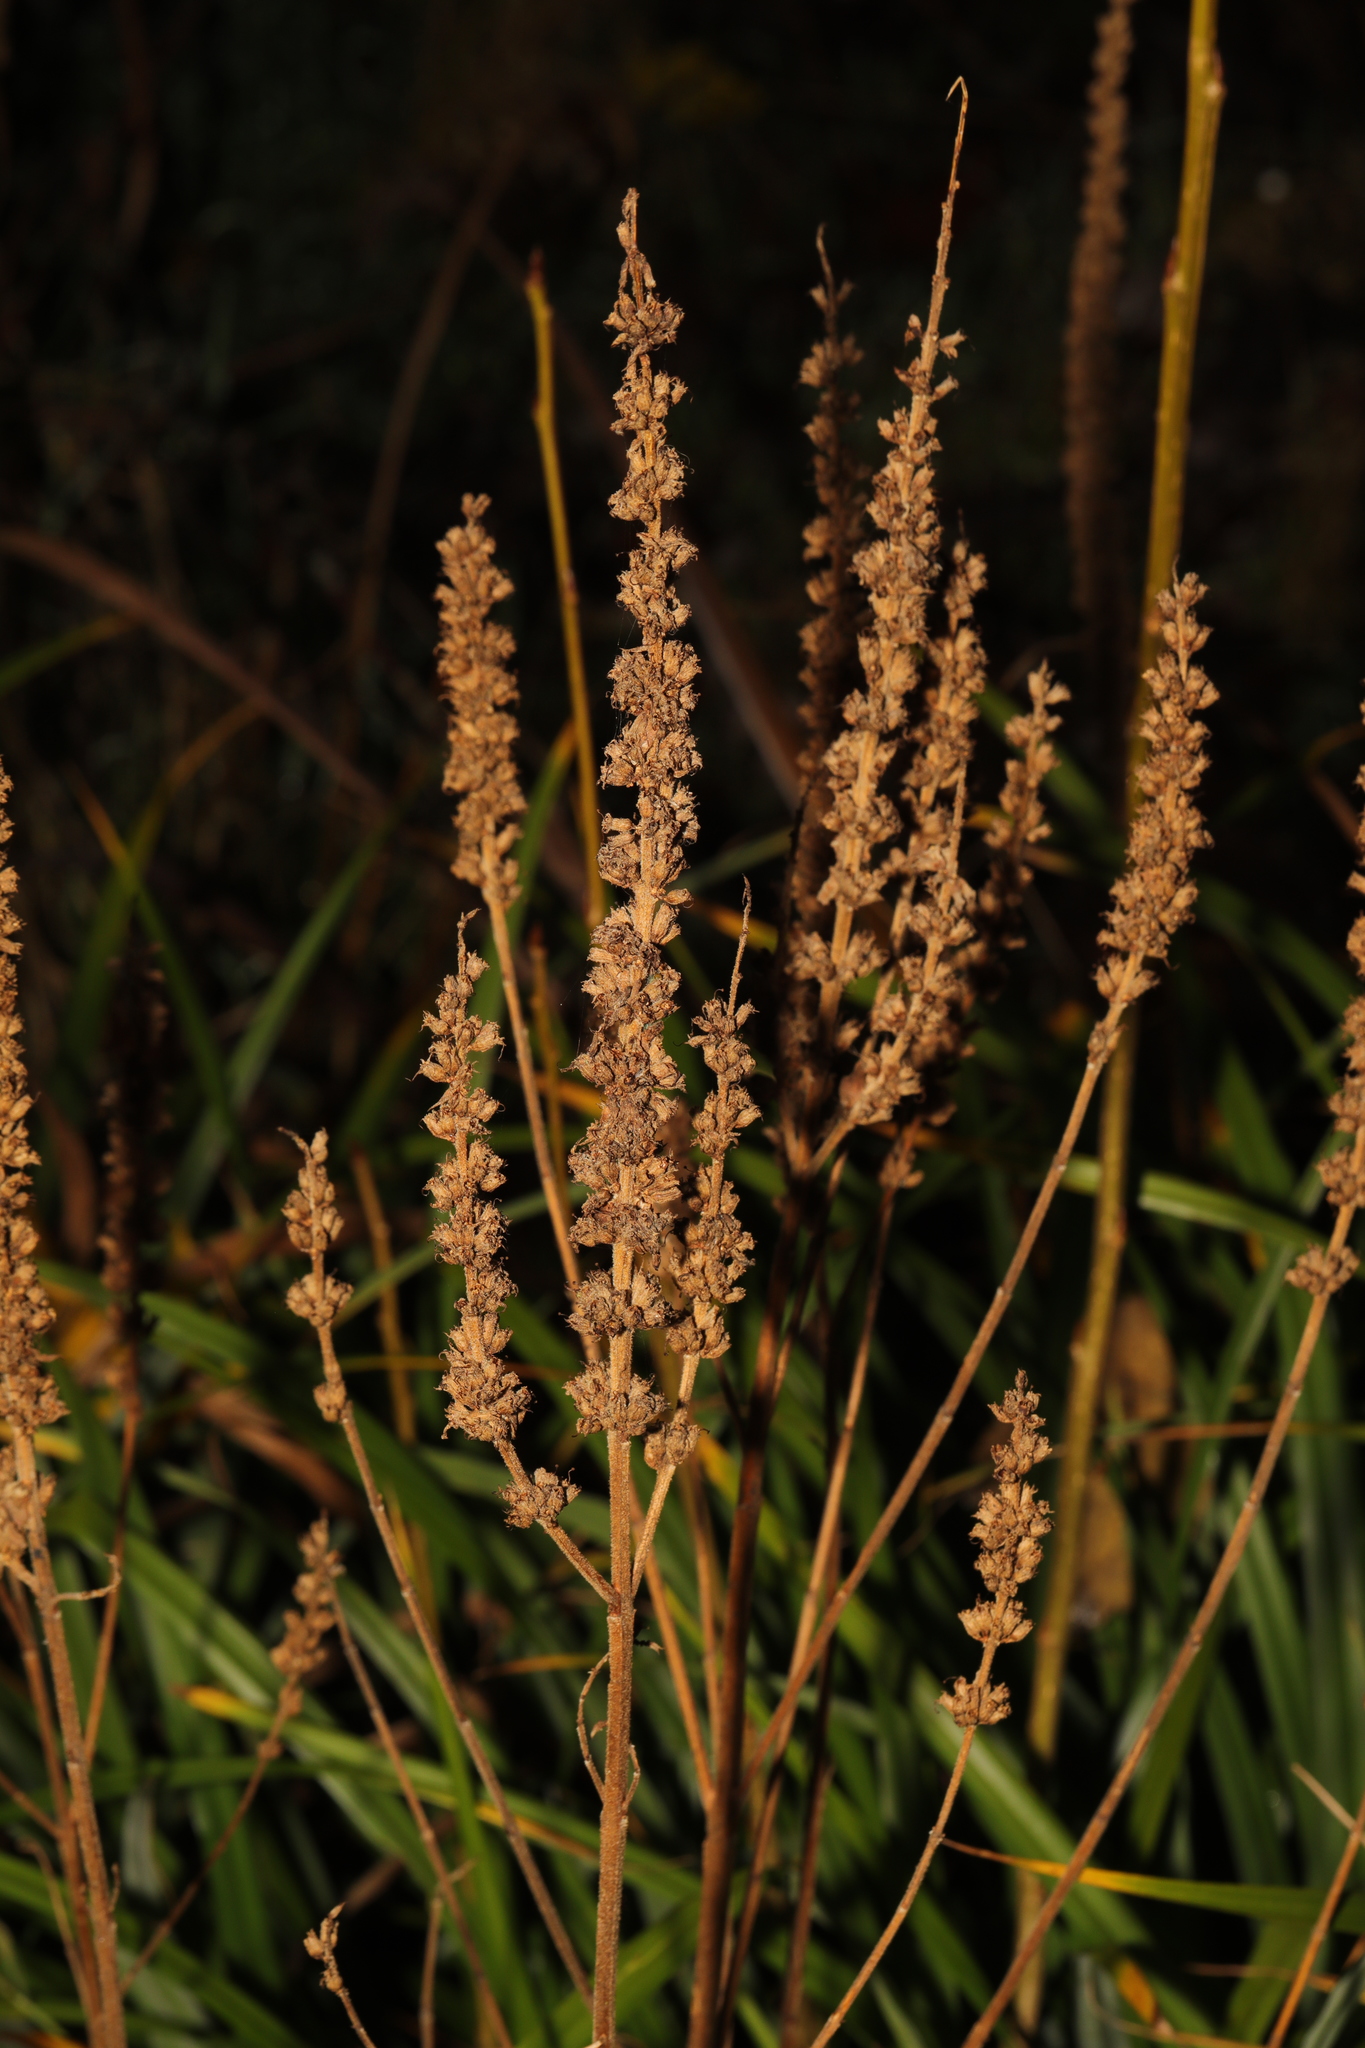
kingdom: Plantae
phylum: Tracheophyta
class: Magnoliopsida
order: Myrtales
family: Lythraceae
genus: Lythrum
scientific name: Lythrum salicaria
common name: Purple loosestrife
